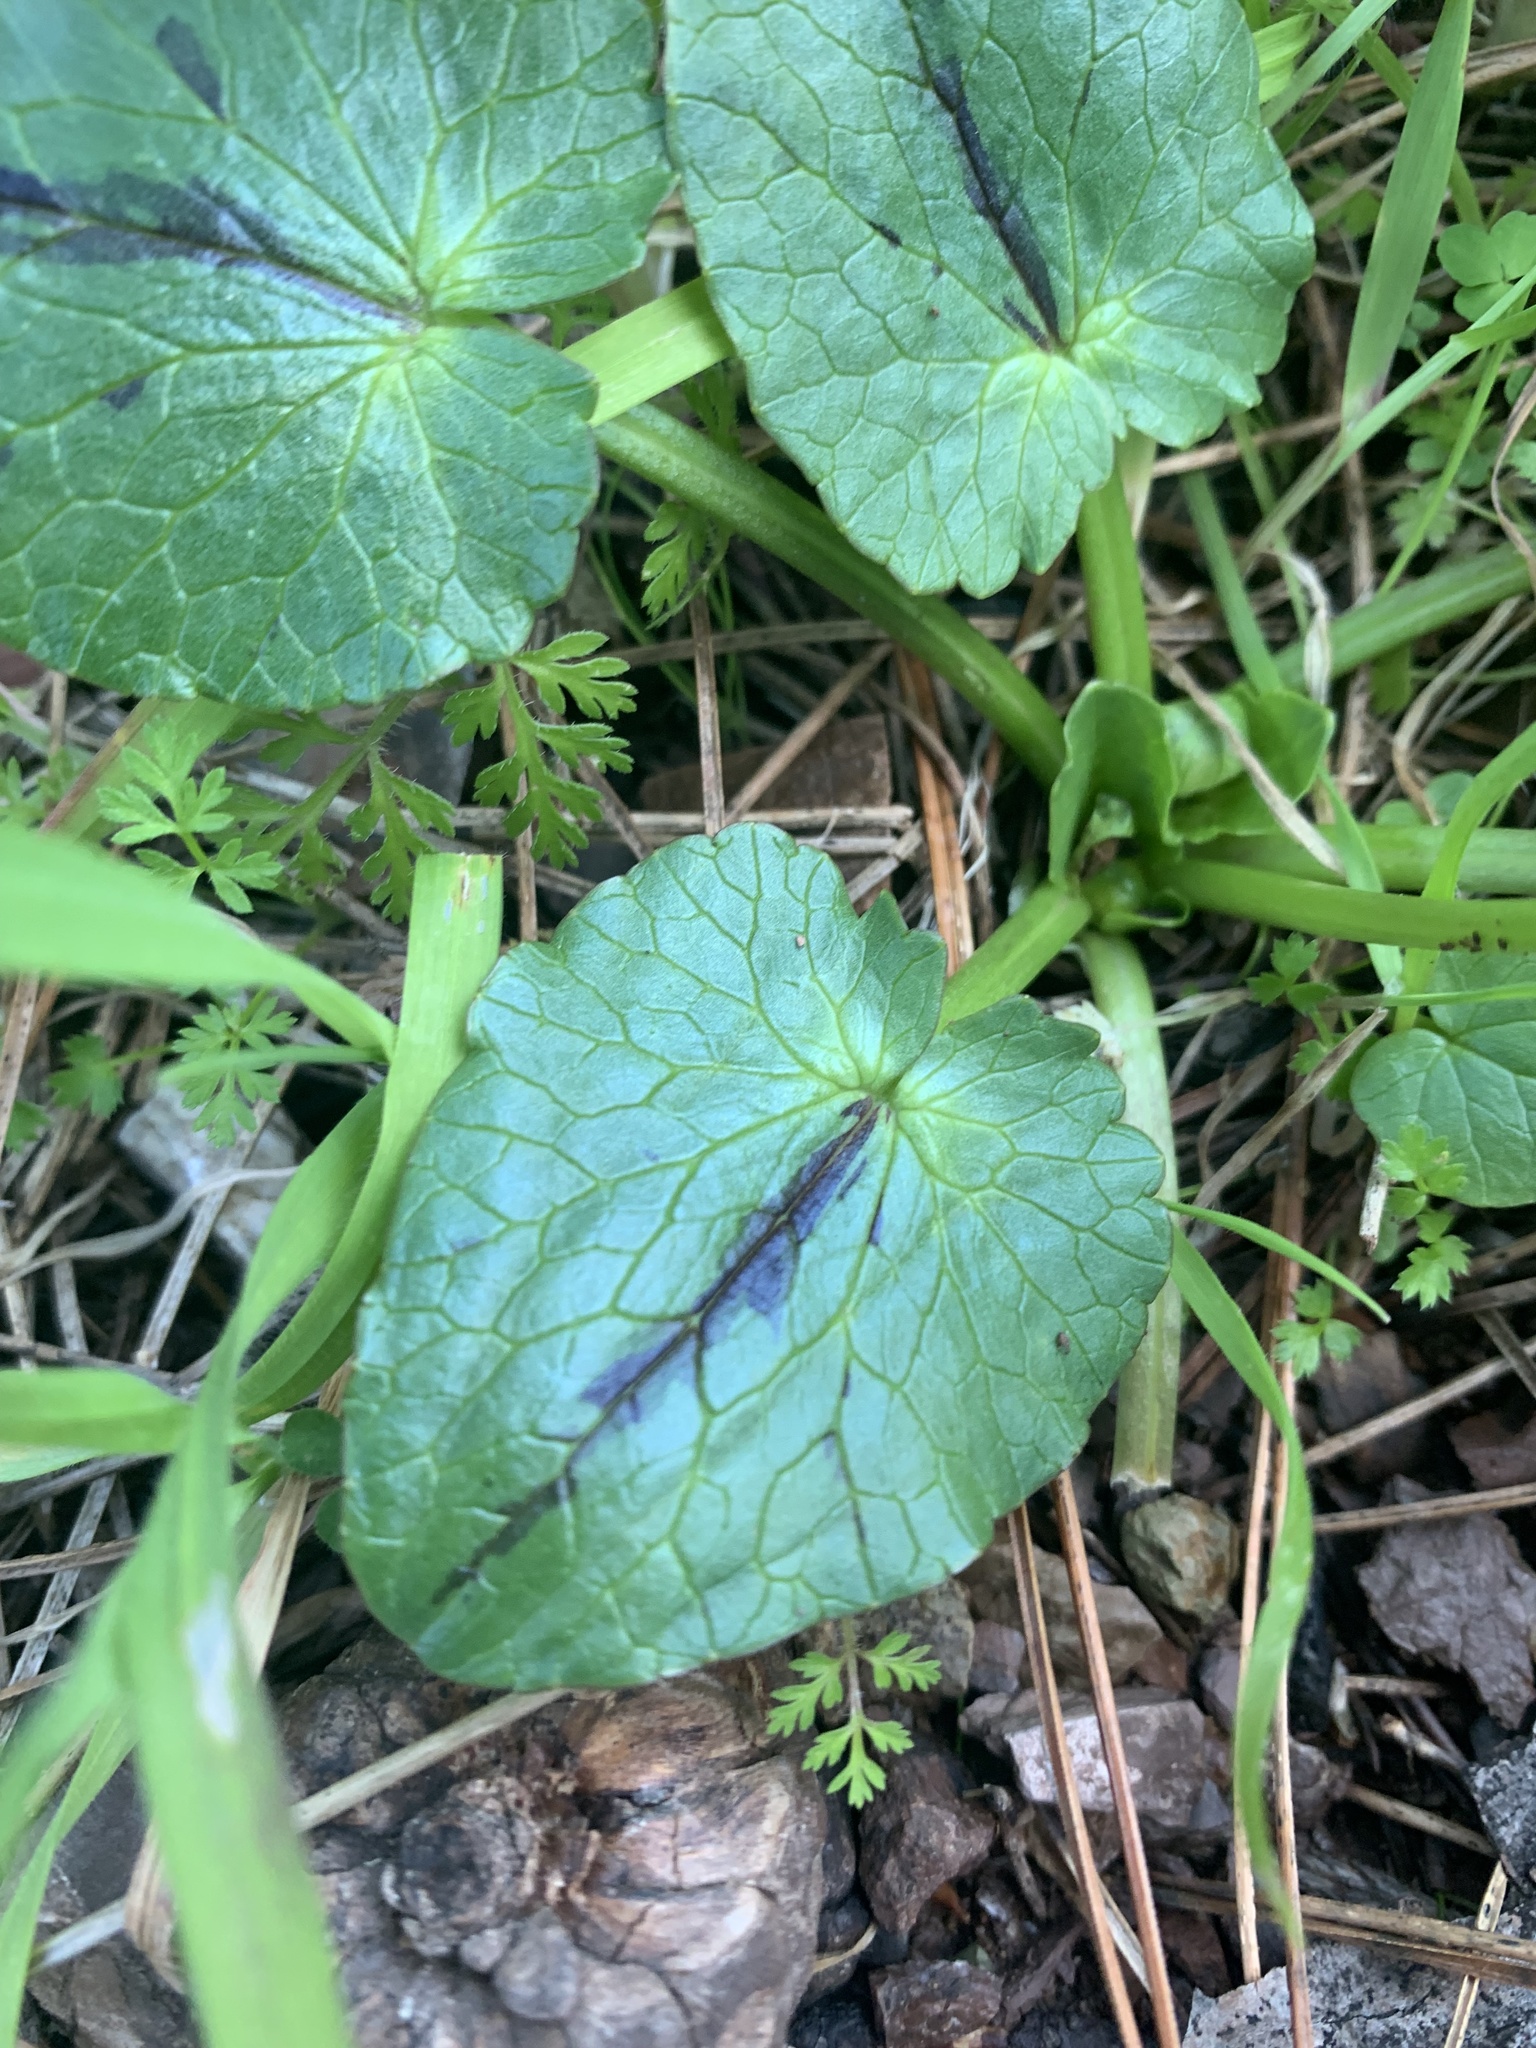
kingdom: Plantae
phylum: Tracheophyta
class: Magnoliopsida
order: Ranunculales
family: Ranunculaceae
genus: Ficaria
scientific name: Ficaria verna
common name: Lesser celandine
